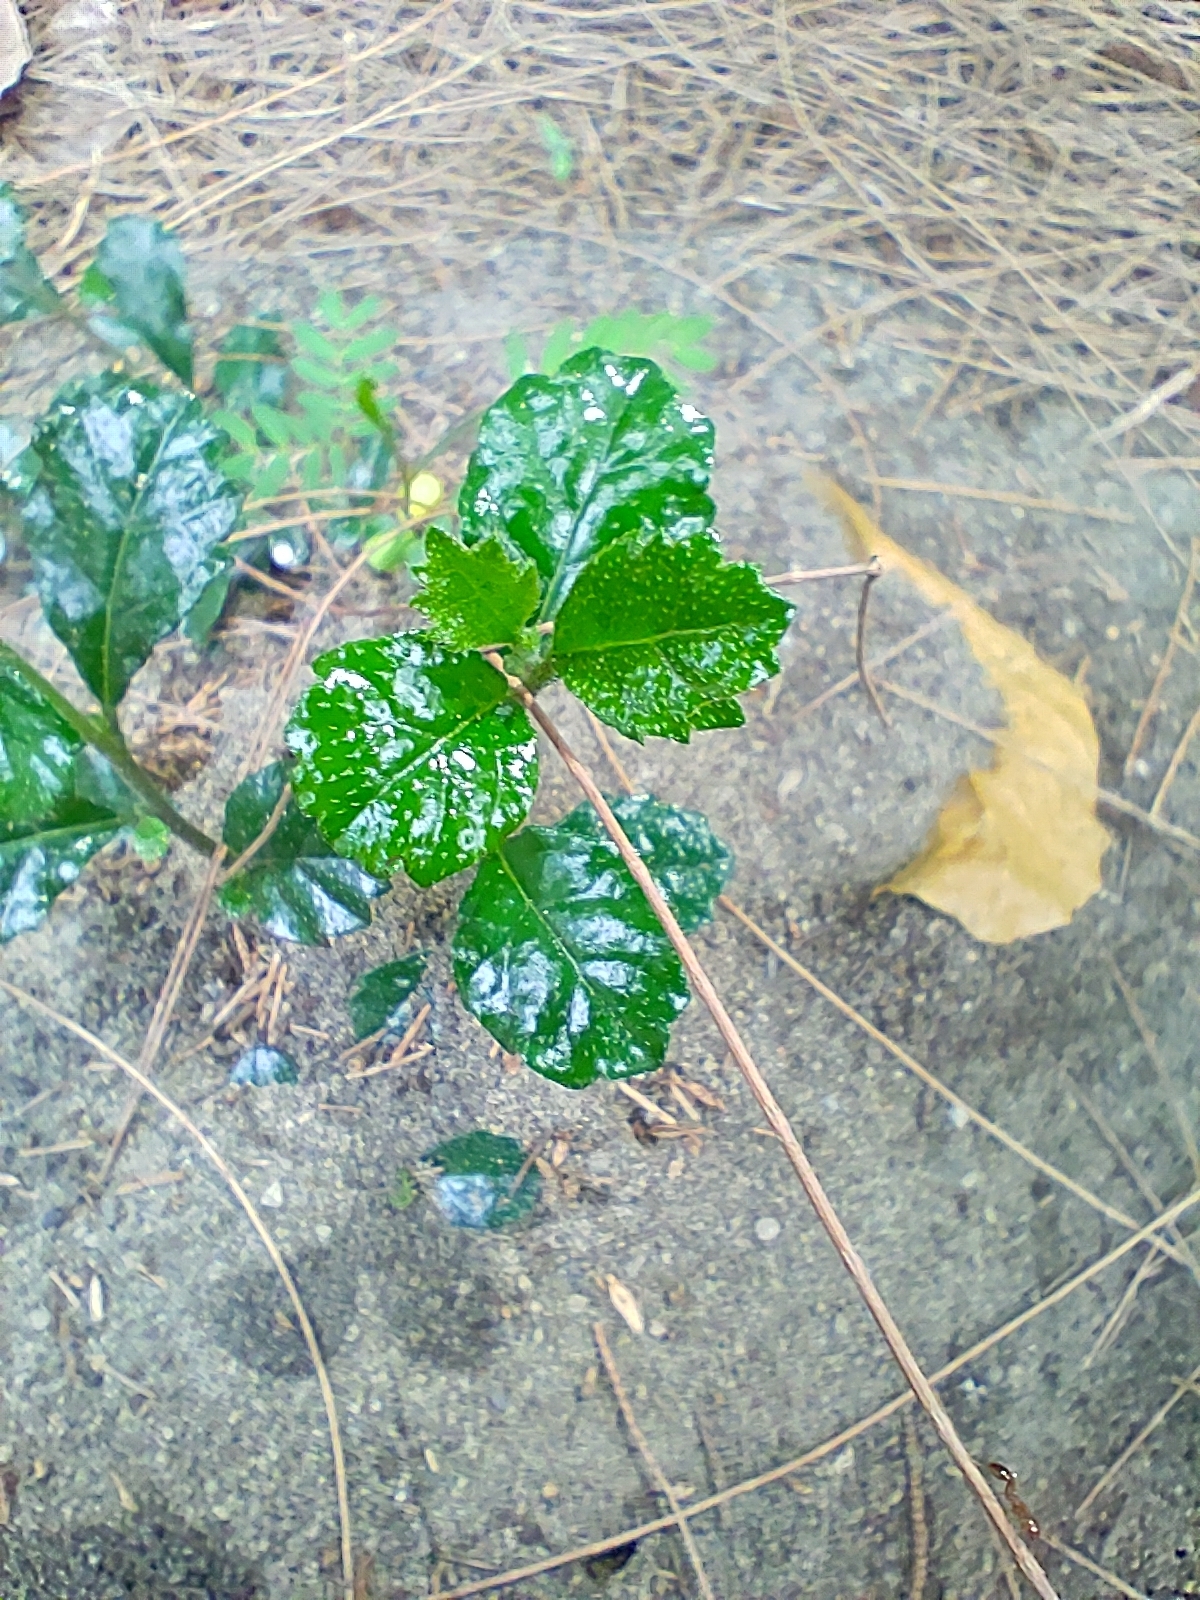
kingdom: Plantae
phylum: Tracheophyta
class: Magnoliopsida
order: Boraginales
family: Ehretiaceae
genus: Ehretia
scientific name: Ehretia microphylla
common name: Fukien-tea
